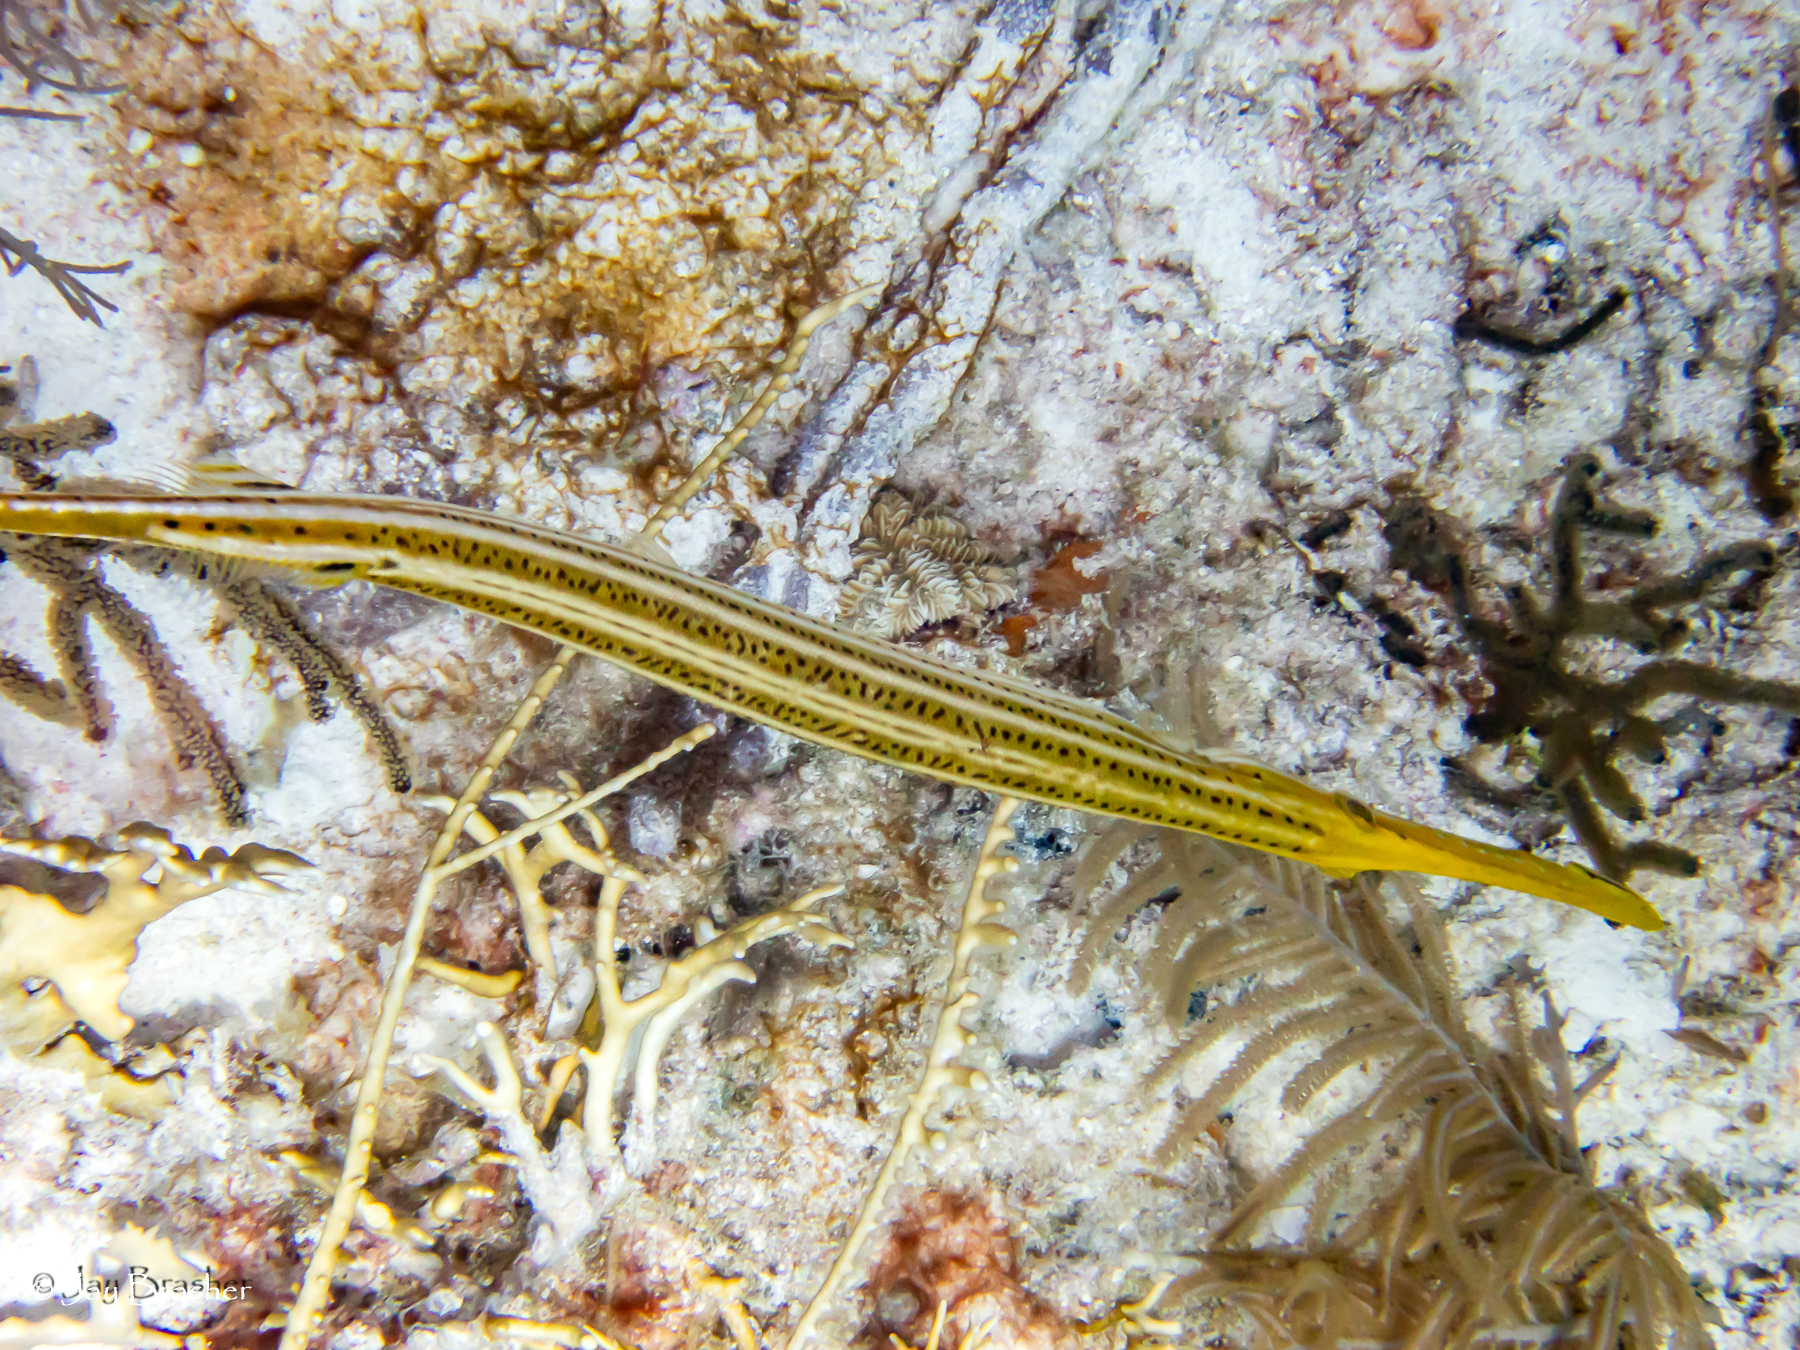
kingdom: Animalia
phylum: Chordata
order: Syngnathiformes
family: Aulostomidae
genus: Aulostomus
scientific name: Aulostomus maculatus
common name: West atlantic trumpetfish
